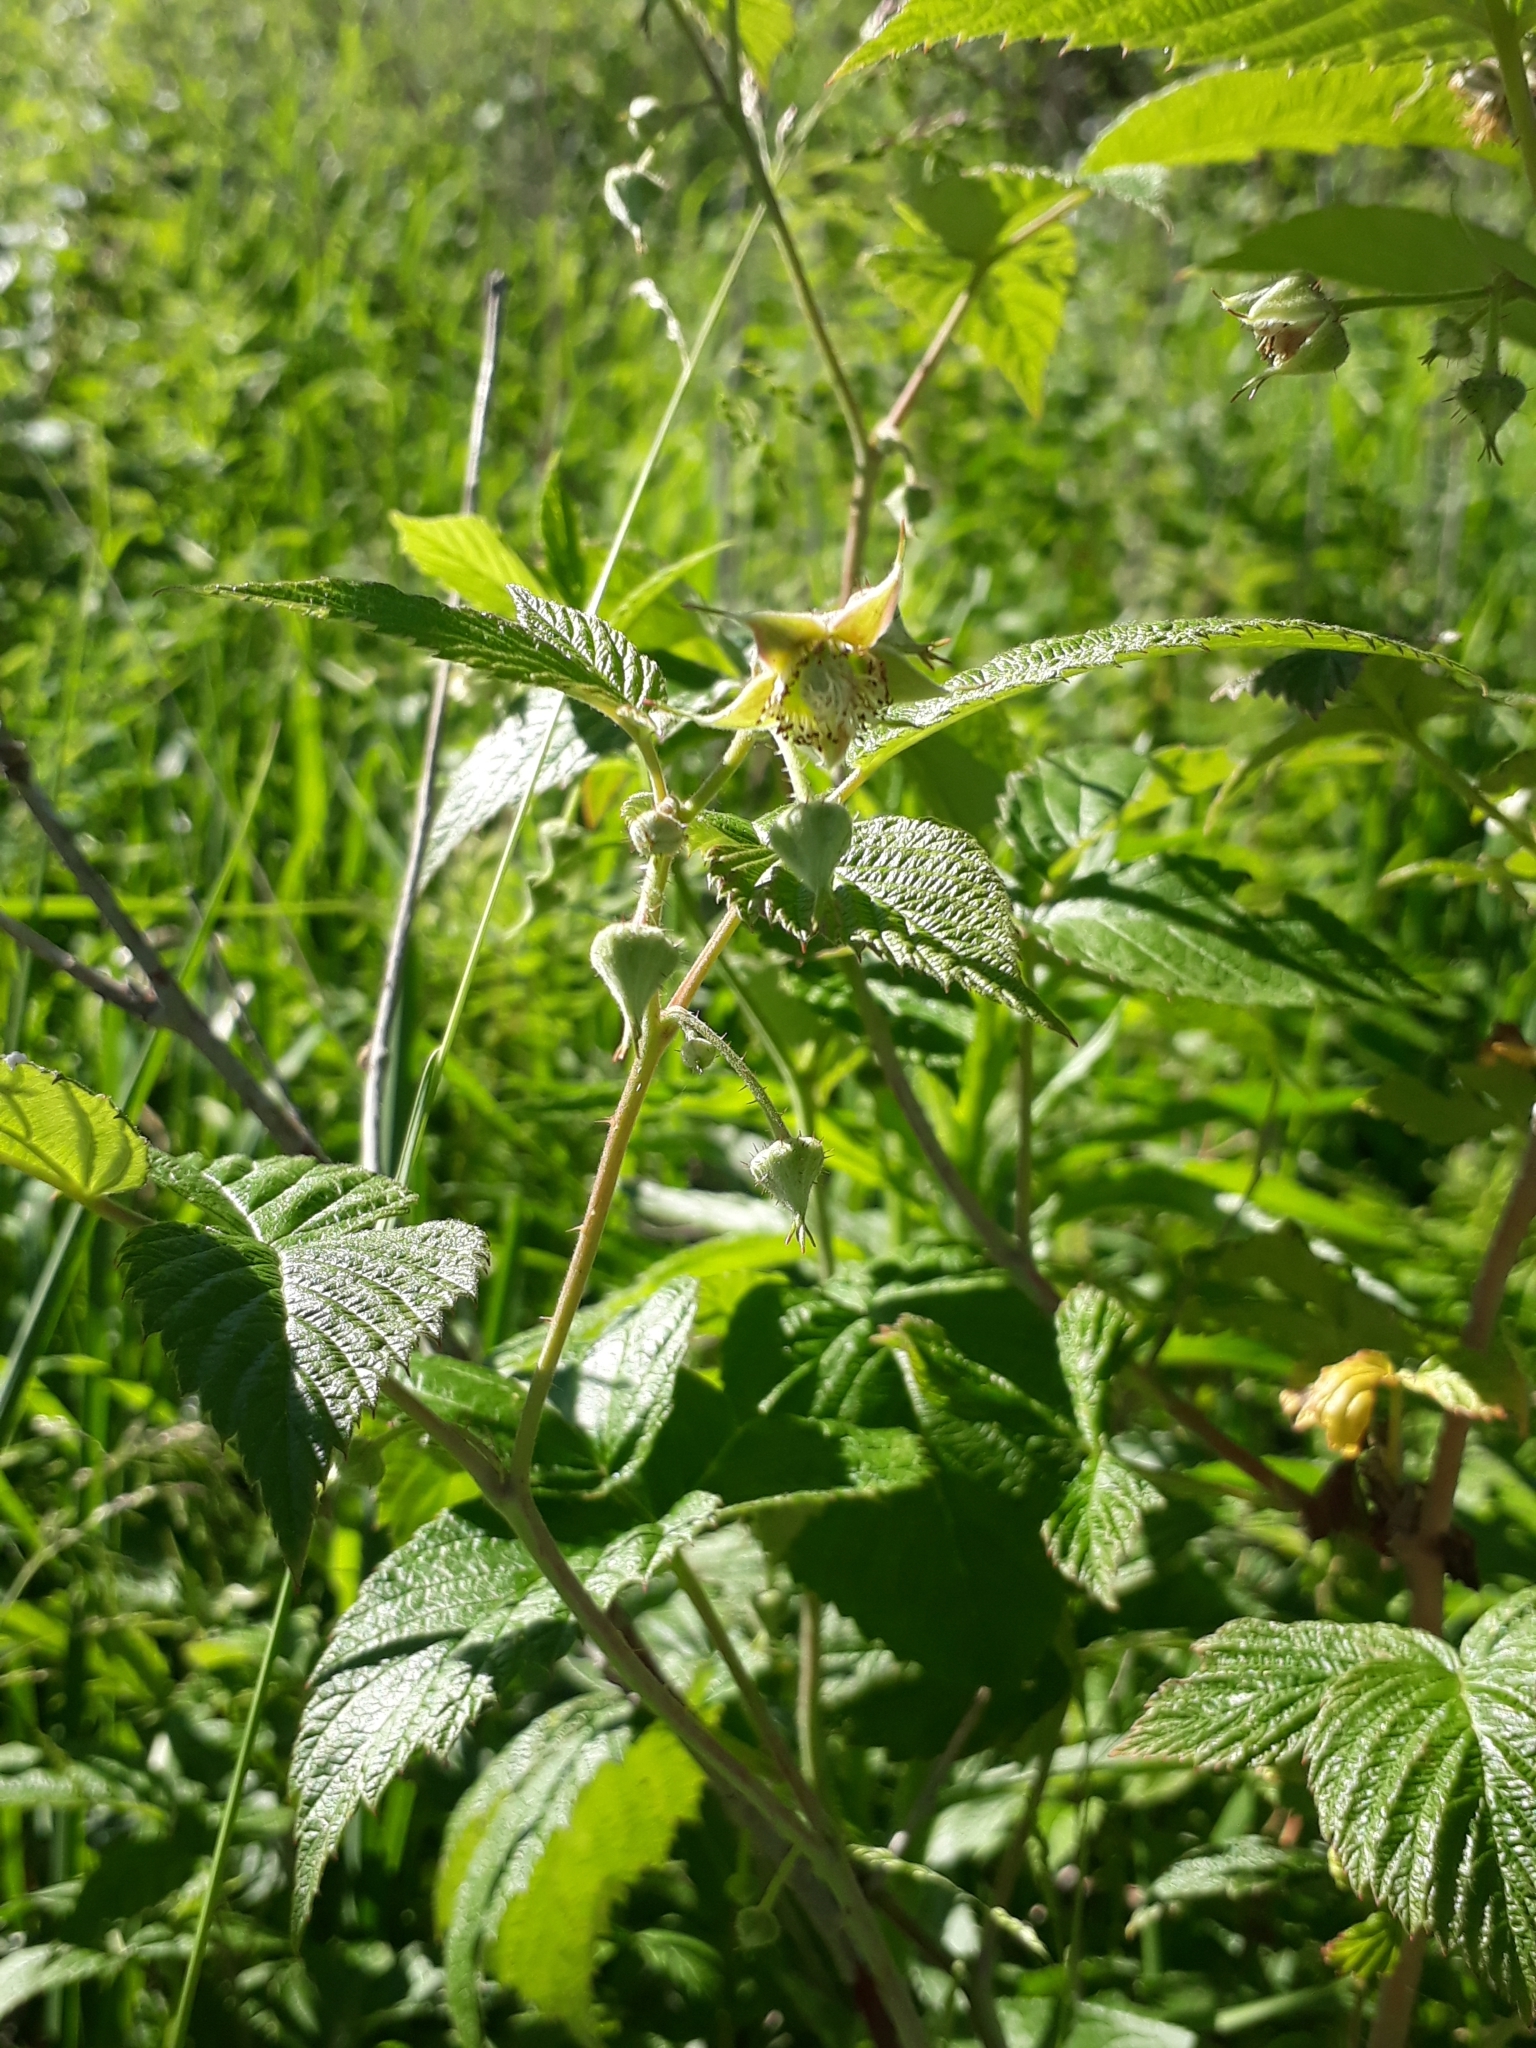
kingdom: Plantae
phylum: Tracheophyta
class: Magnoliopsida
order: Rosales
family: Rosaceae
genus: Rubus
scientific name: Rubus idaeus
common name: Raspberry
